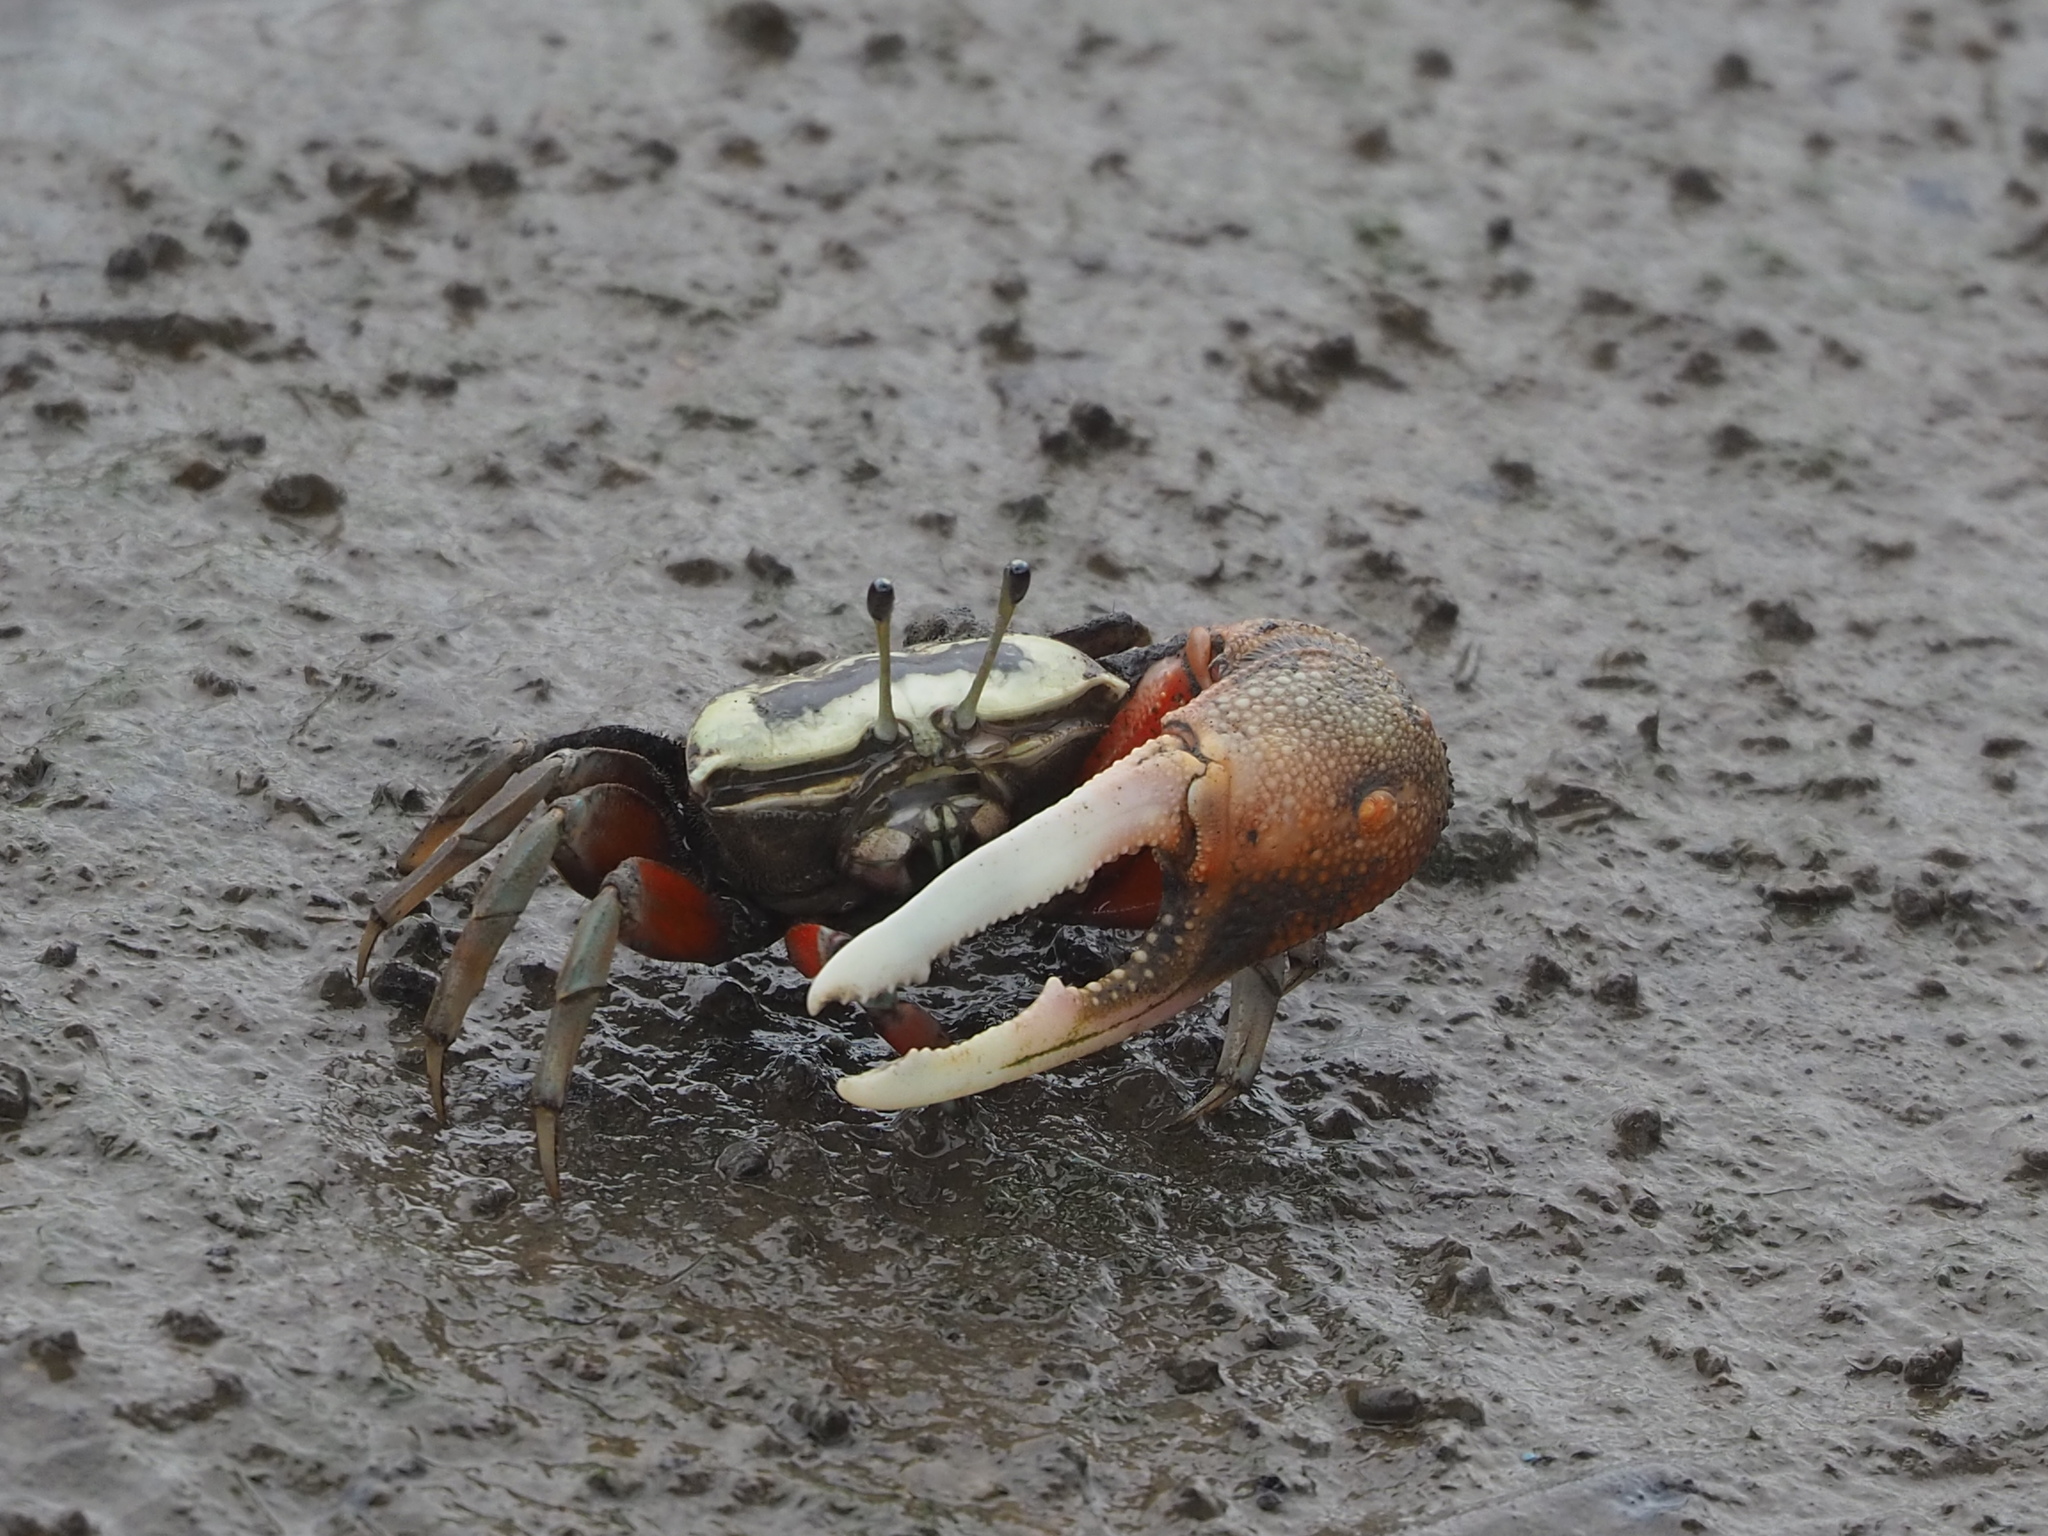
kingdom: Animalia
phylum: Arthropoda
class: Malacostraca
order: Decapoda
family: Ocypodidae
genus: Tubuca
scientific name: Tubuca arcuata
